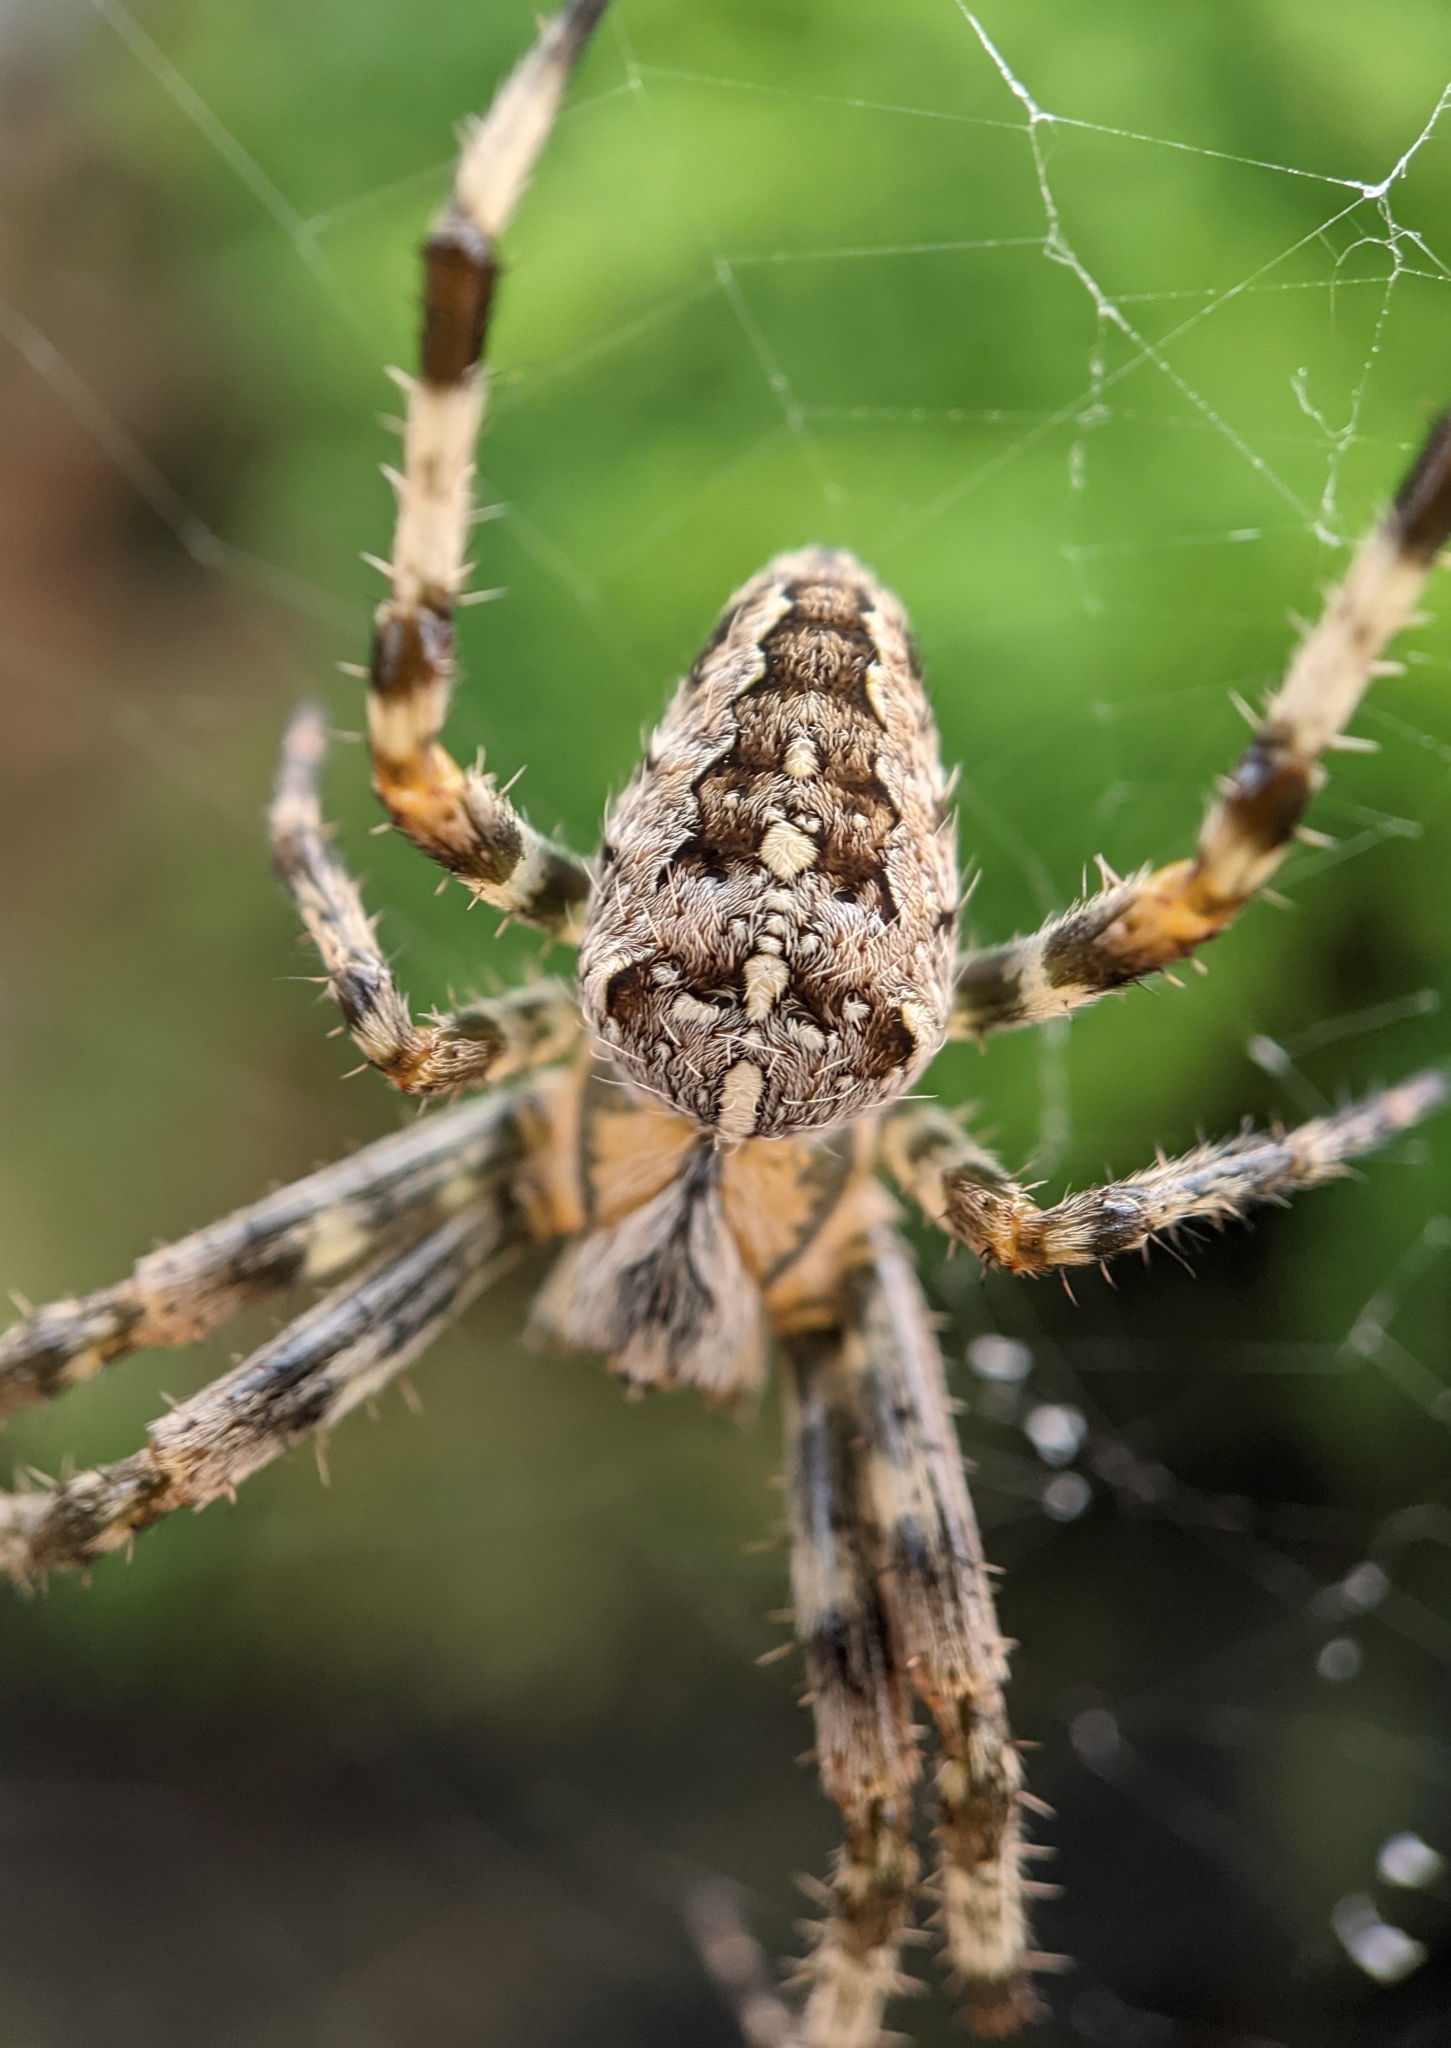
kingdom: Animalia
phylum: Arthropoda
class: Arachnida
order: Araneae
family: Araneidae
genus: Araneus
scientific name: Araneus diadematus
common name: Cross orbweaver
